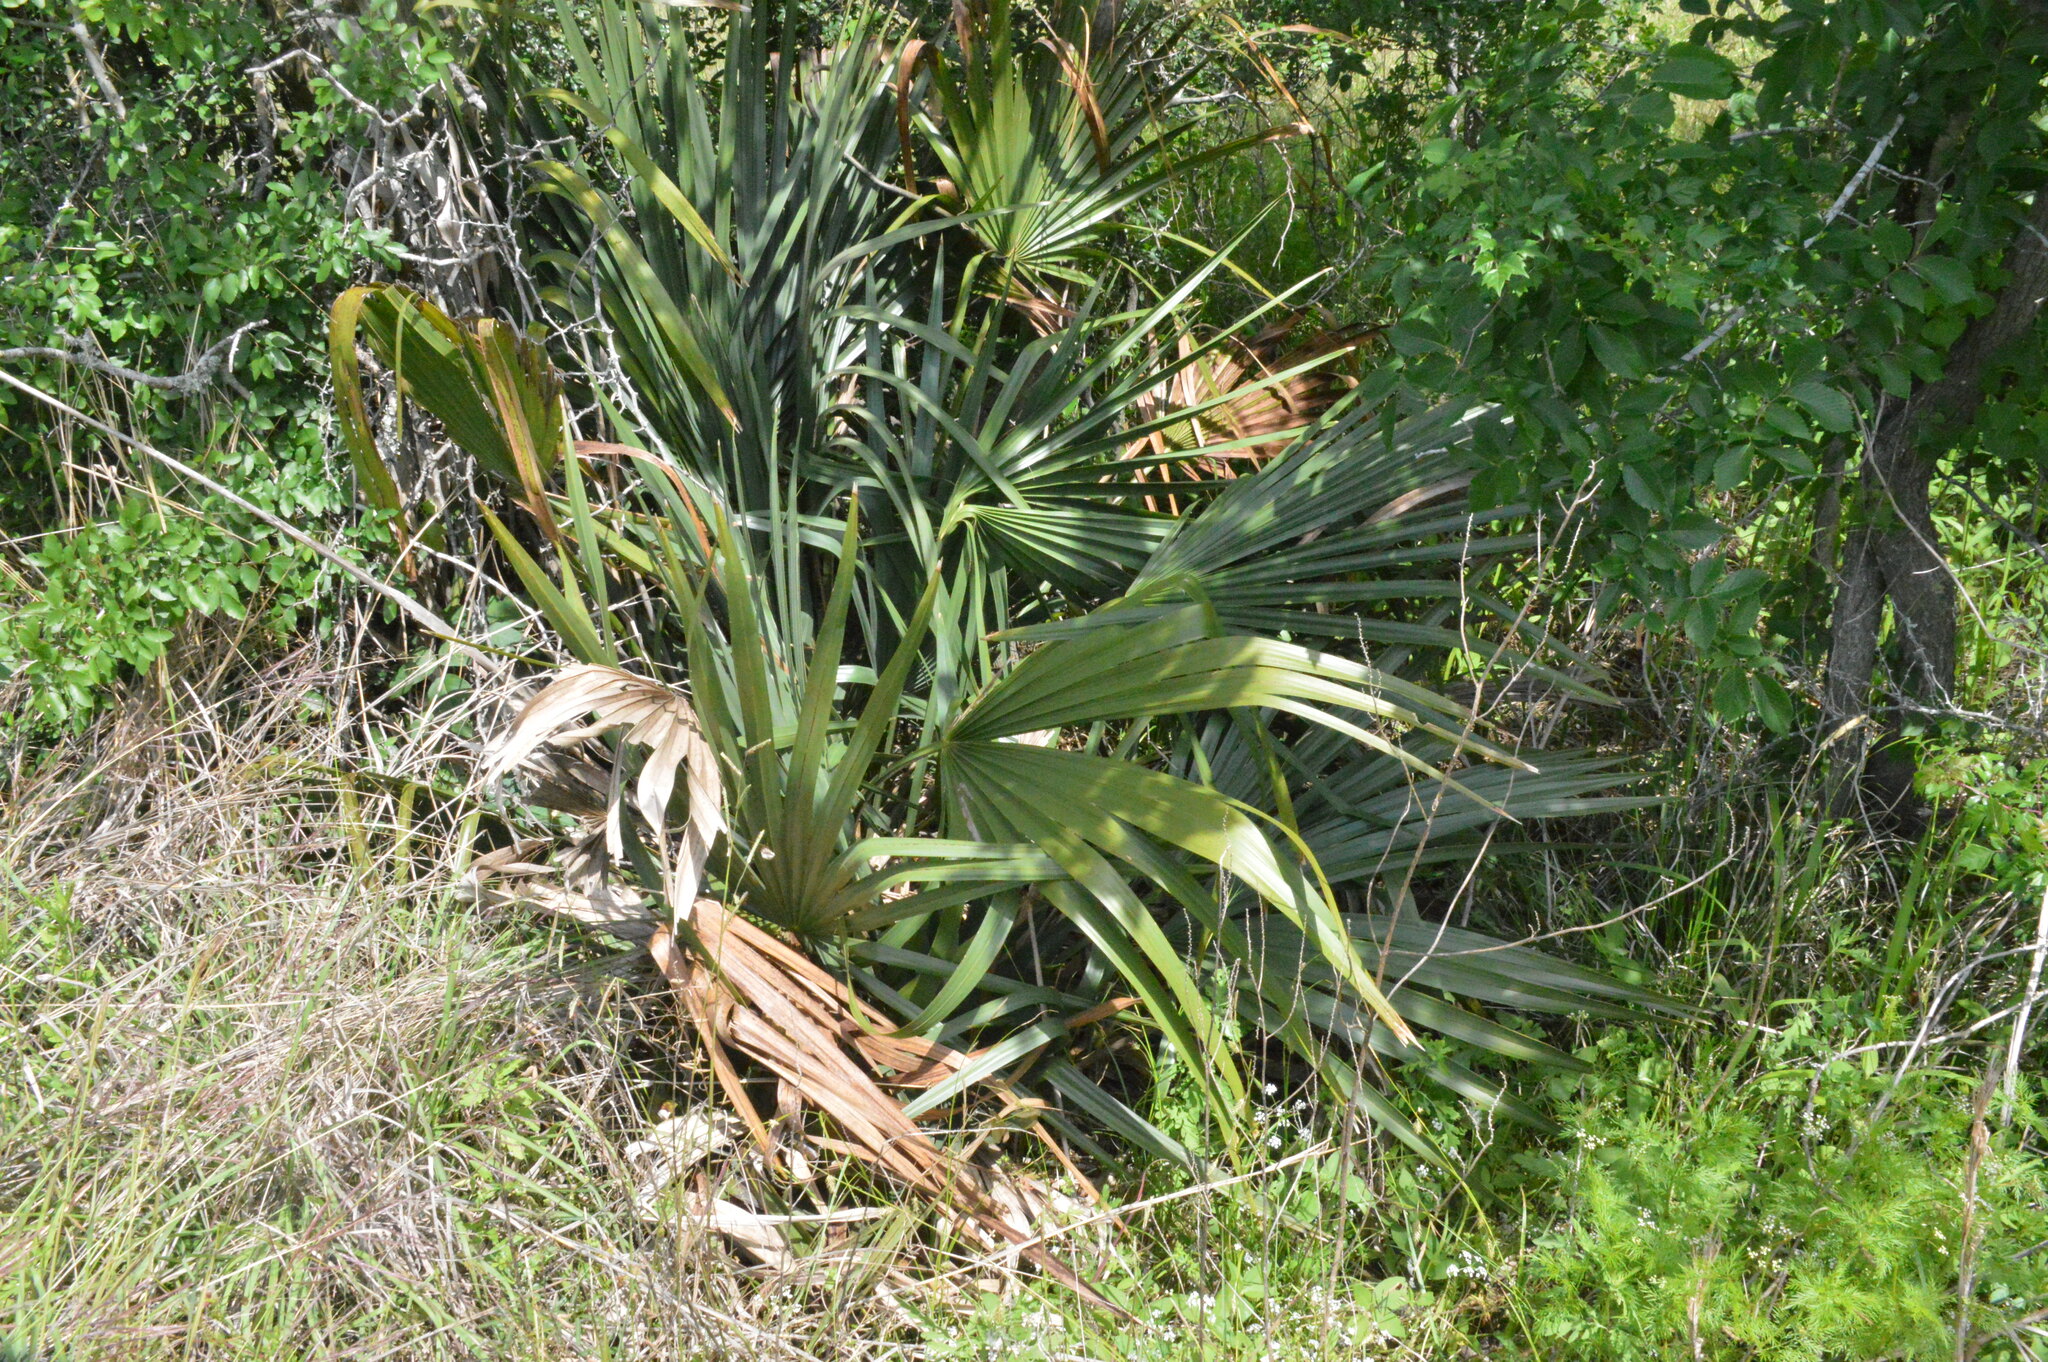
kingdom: Plantae
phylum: Tracheophyta
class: Liliopsida
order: Arecales
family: Arecaceae
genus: Sabal
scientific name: Sabal minor
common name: Dwarf palmetto
